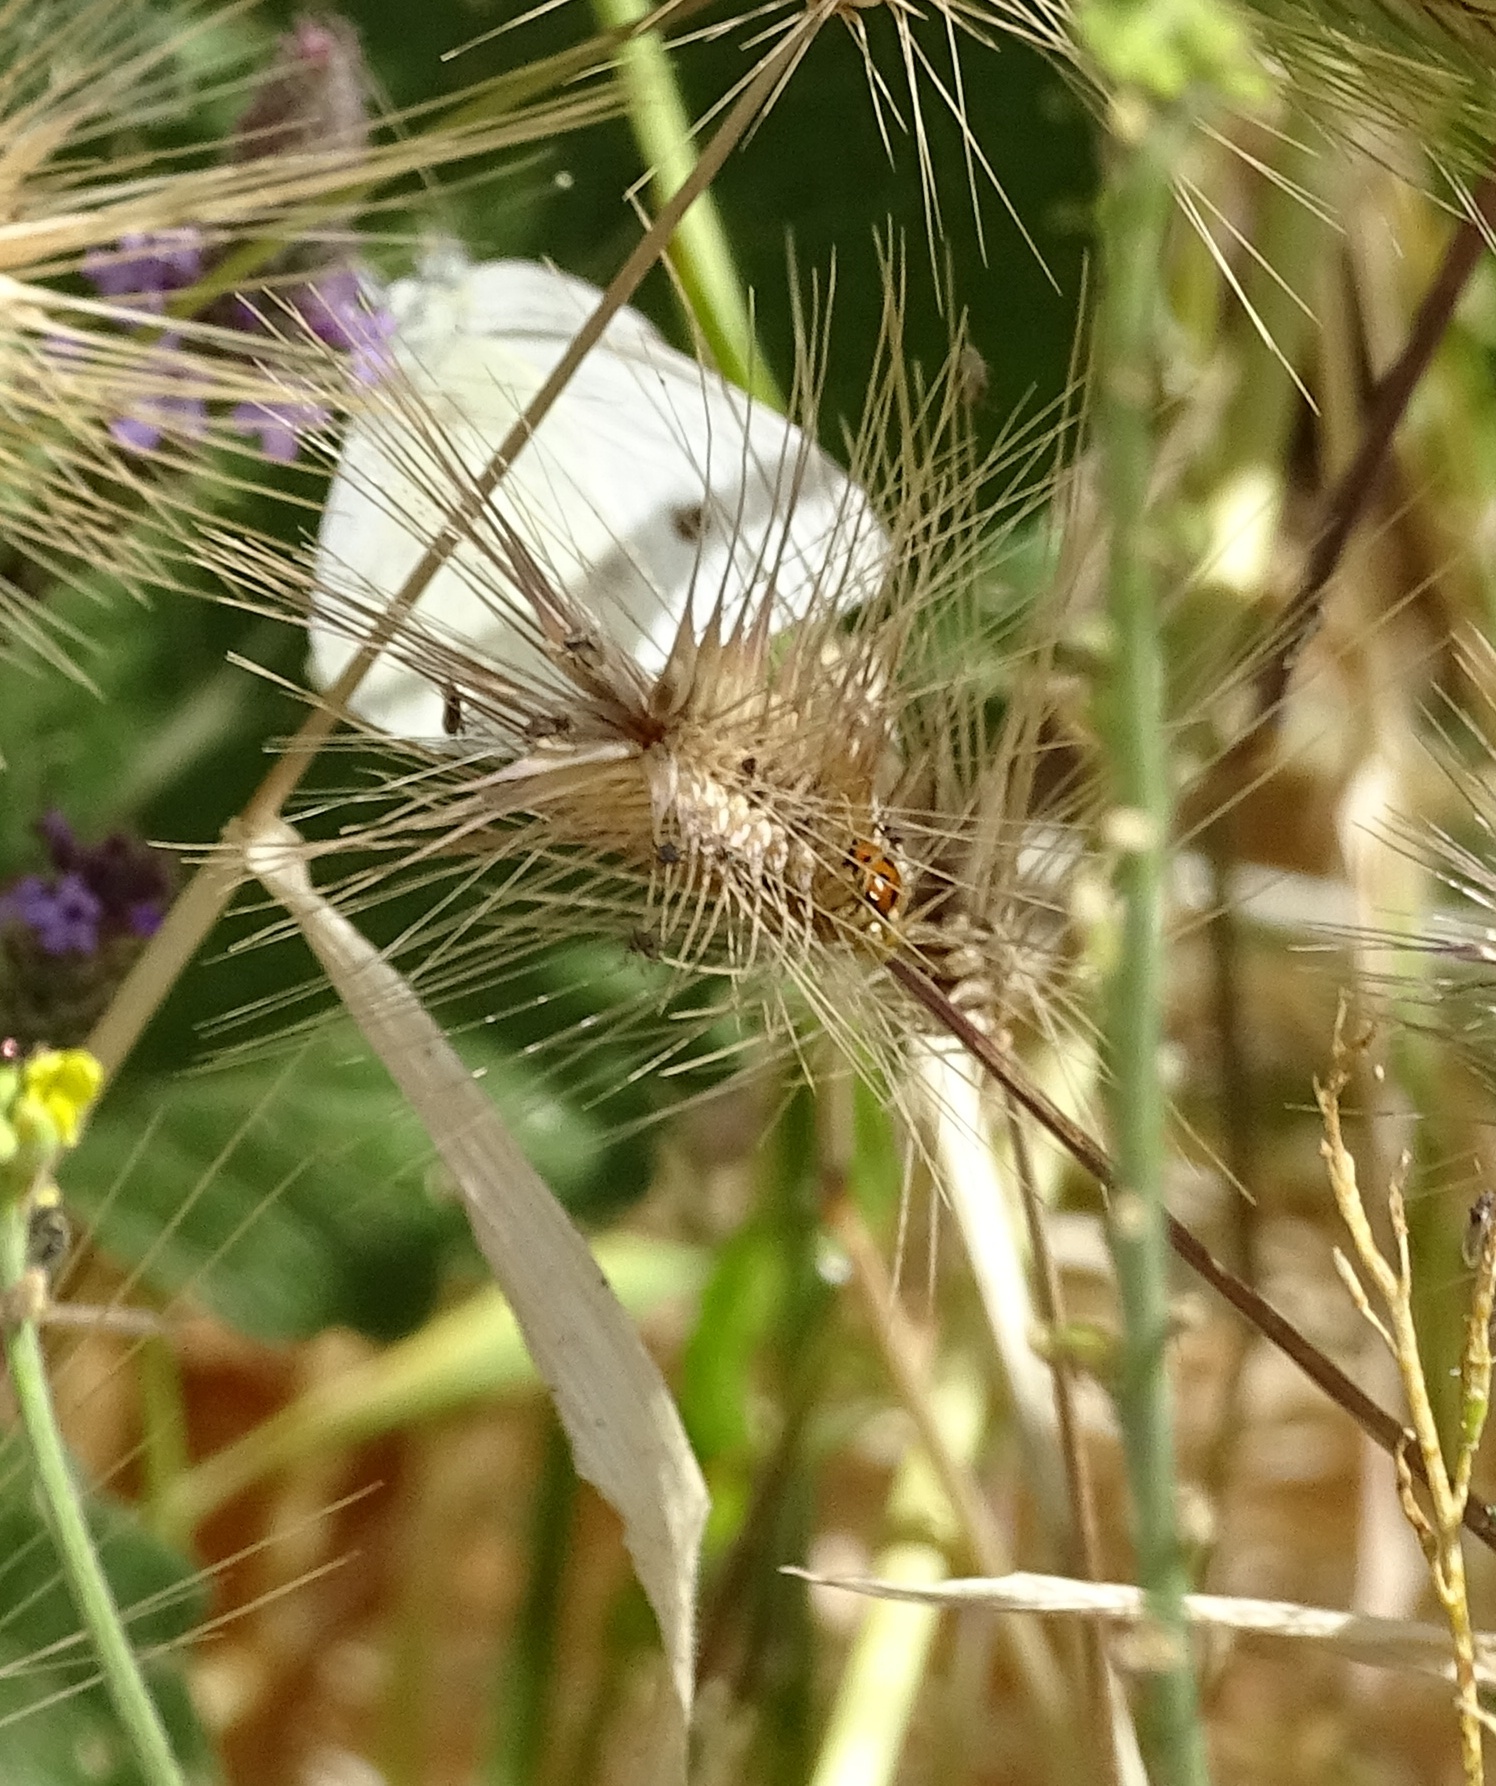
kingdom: Animalia
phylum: Arthropoda
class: Insecta
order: Lepidoptera
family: Pieridae
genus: Pieris
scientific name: Pieris rapae
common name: Small white
